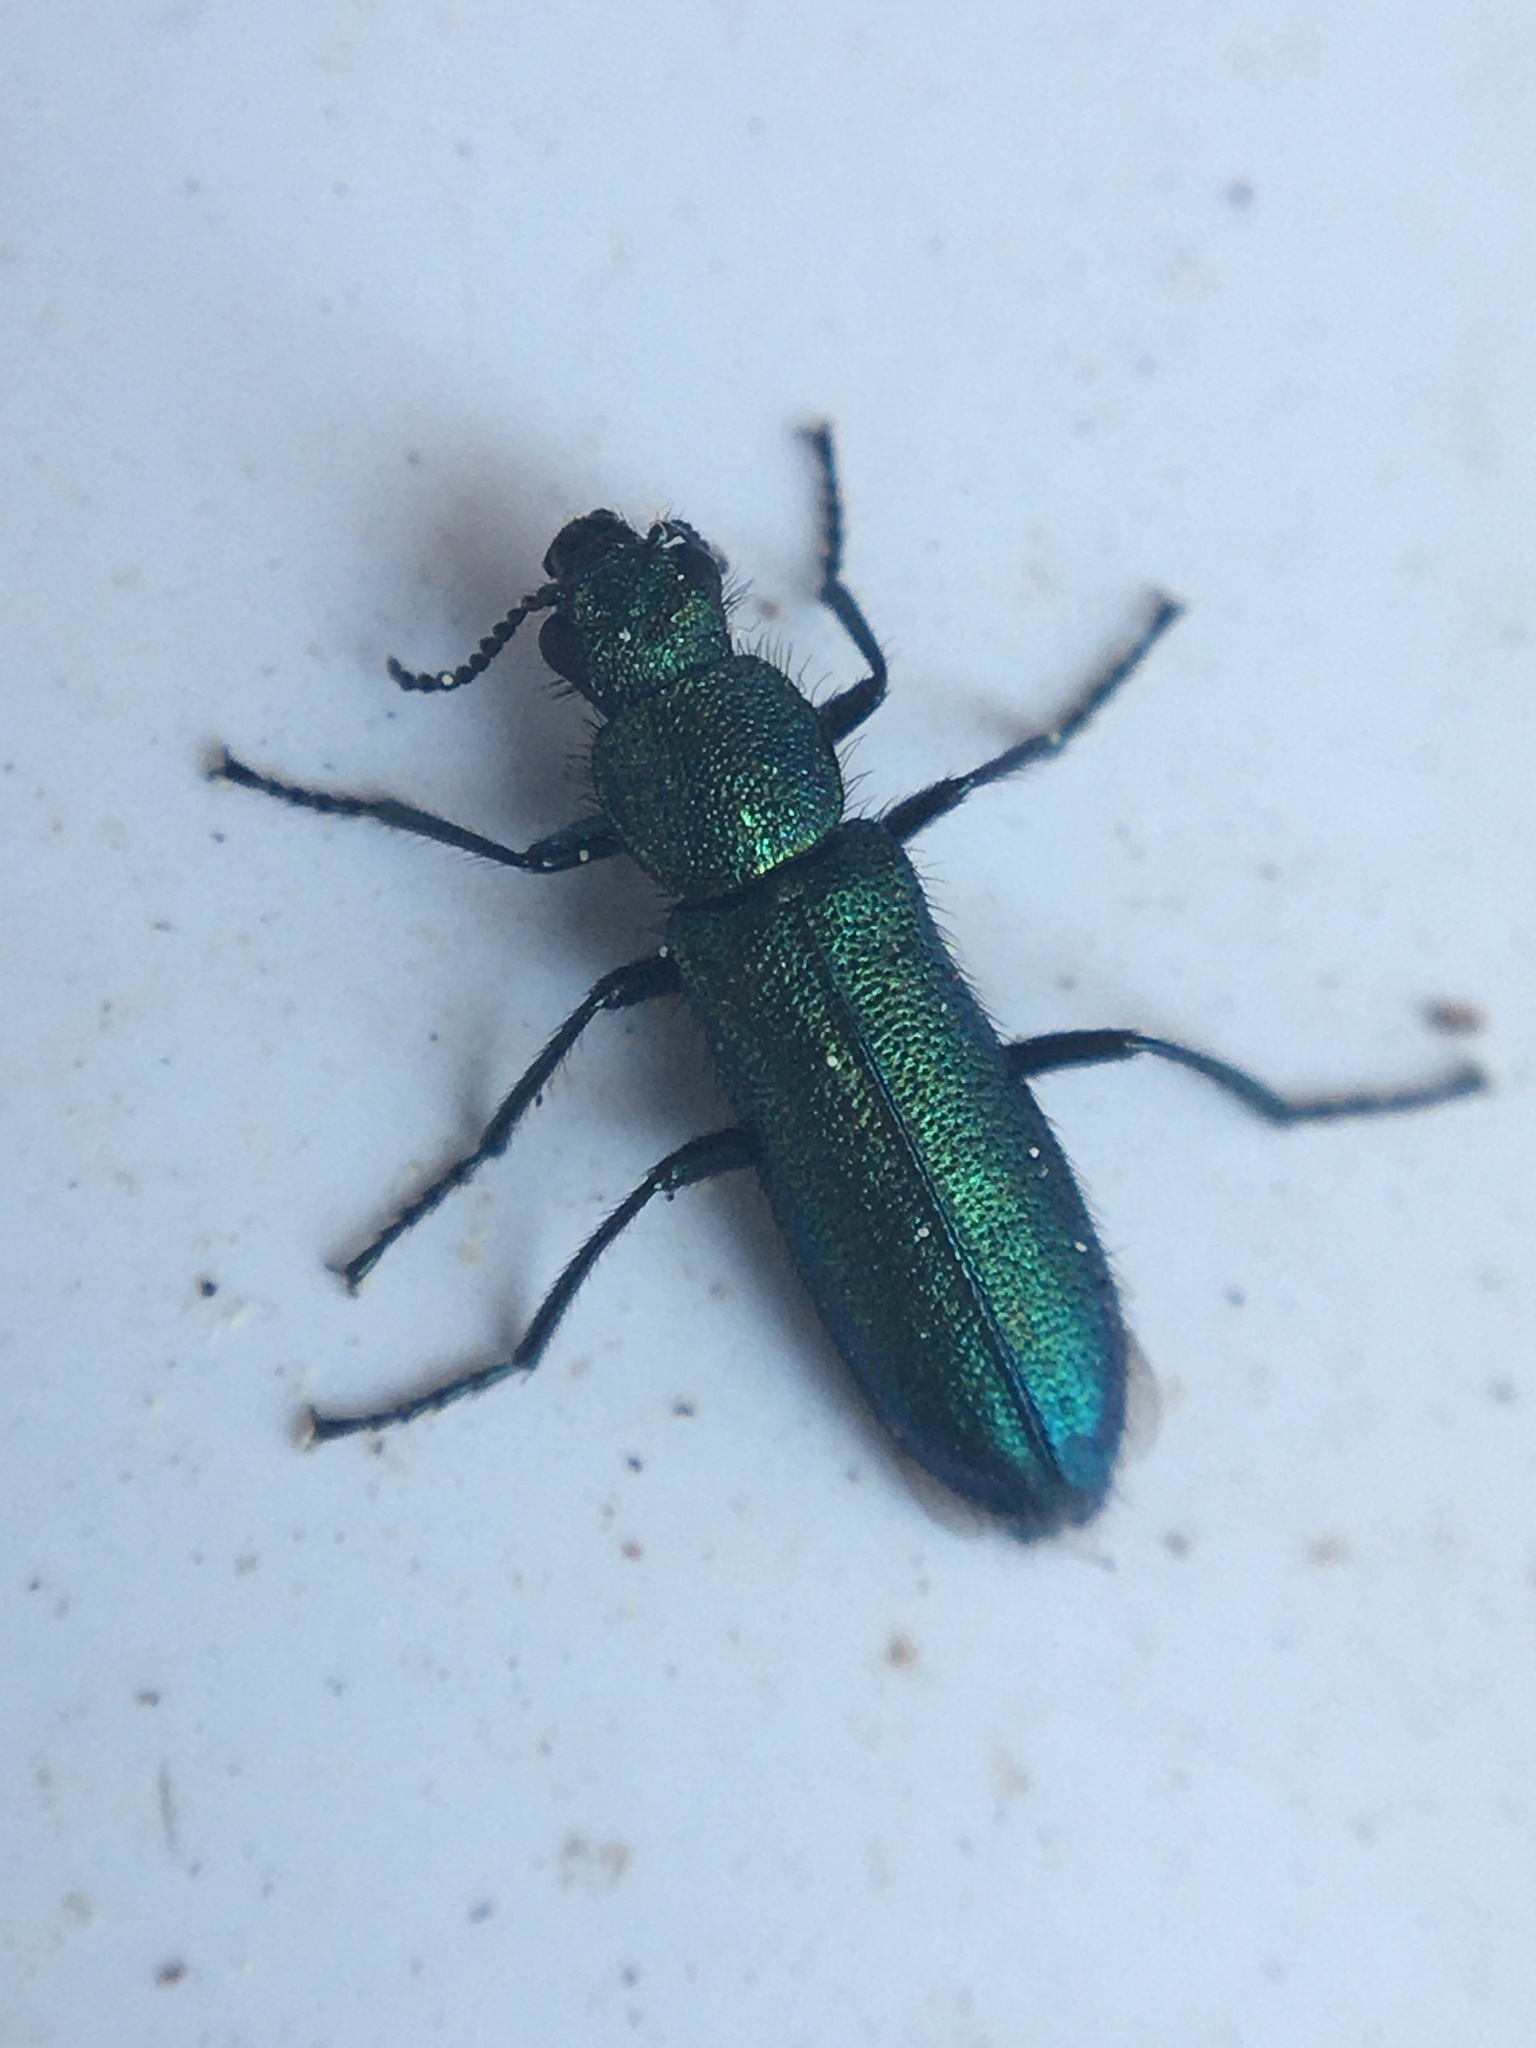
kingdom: Animalia
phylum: Arthropoda
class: Insecta
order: Coleoptera
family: Dasytidae
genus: Psilothrix
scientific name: Psilothrix viridicoerulea
